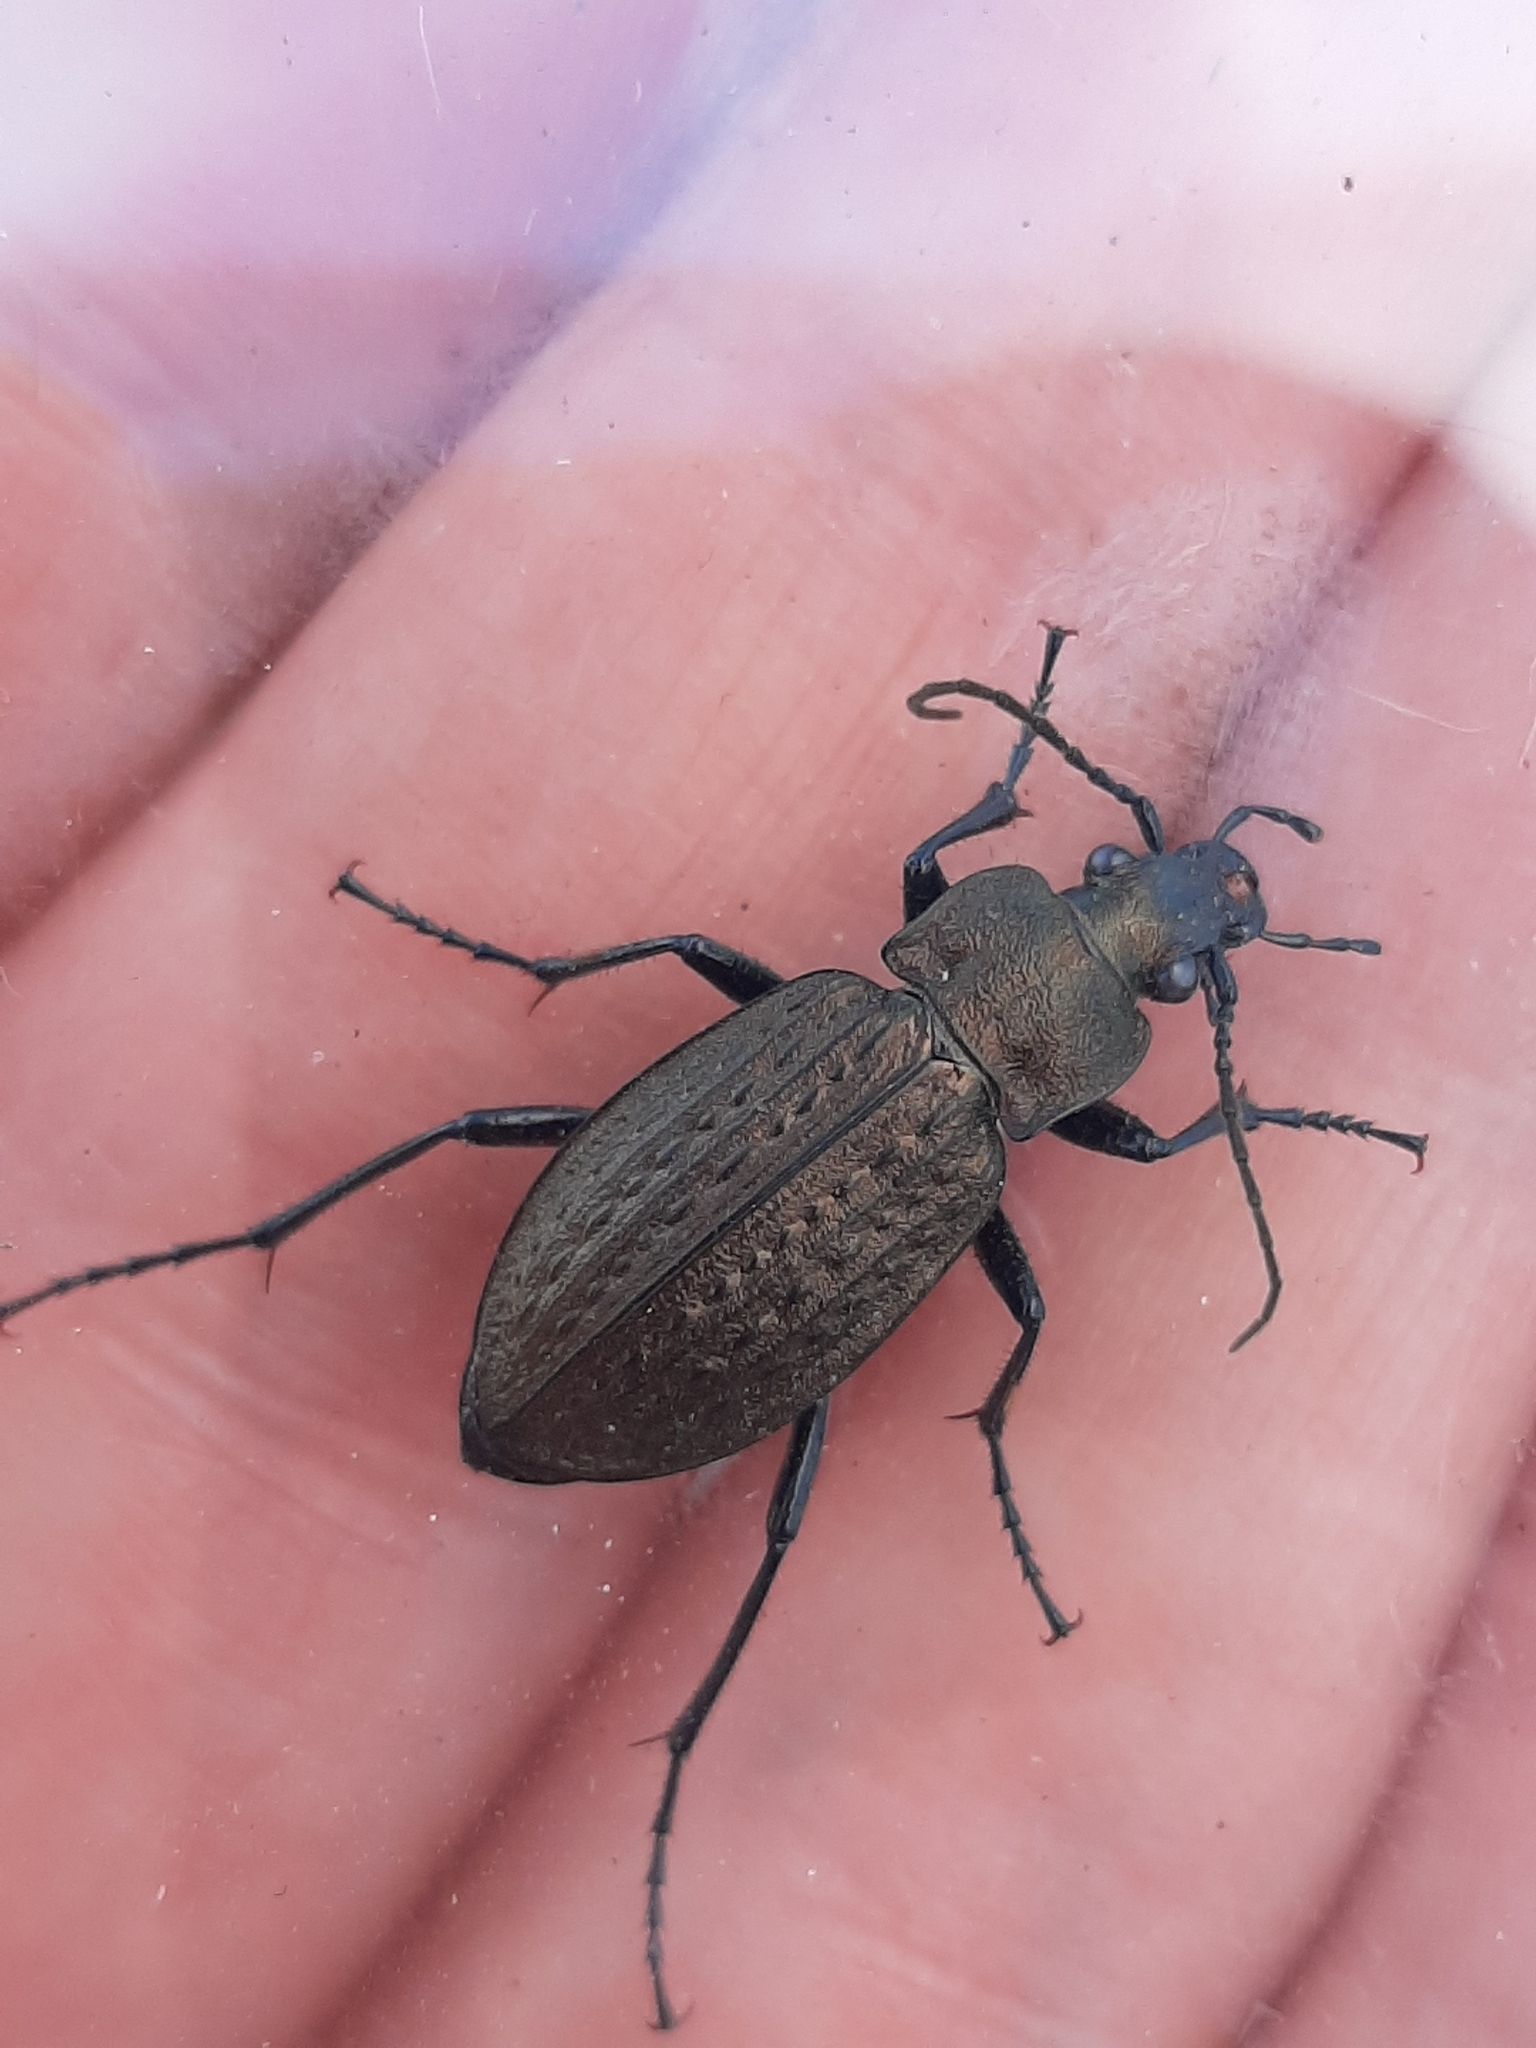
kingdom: Animalia
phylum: Arthropoda
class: Insecta
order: Coleoptera
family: Carabidae
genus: Carabus
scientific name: Carabus granulatus
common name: Granulate ground beetle
